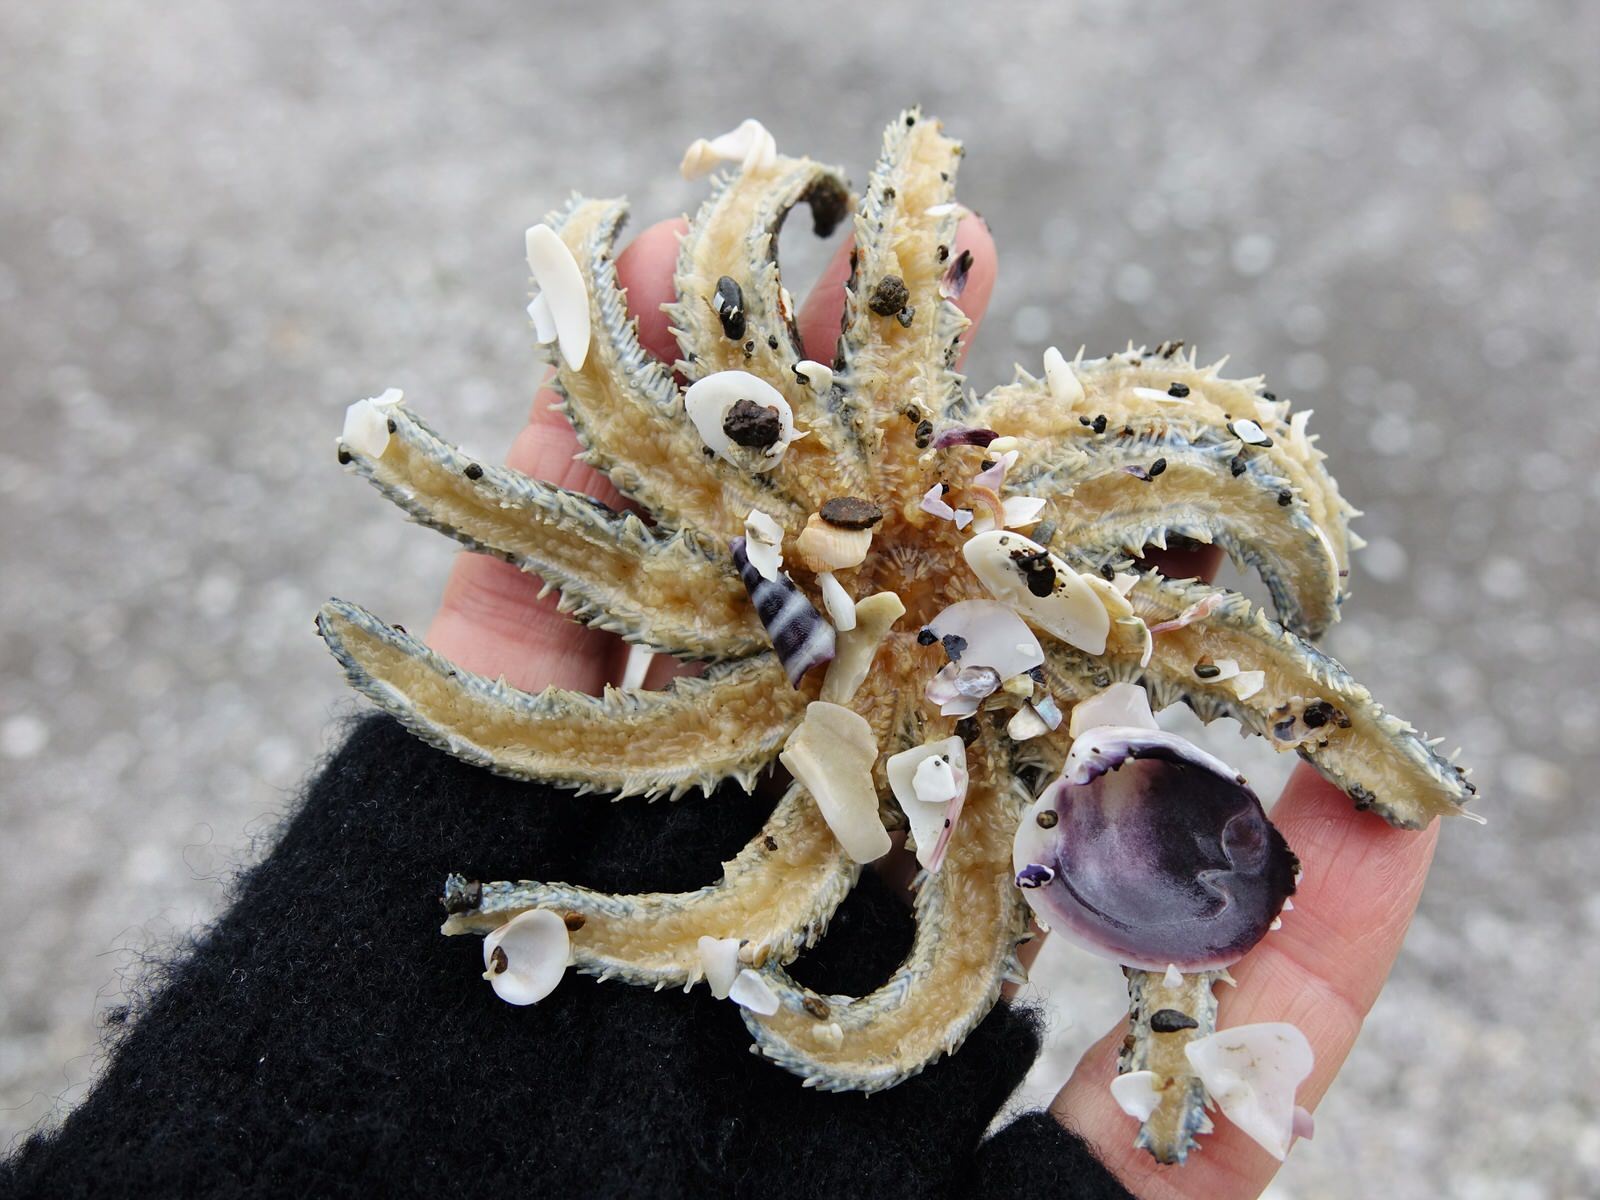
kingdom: Animalia
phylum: Echinodermata
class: Asteroidea
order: Forcipulatida
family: Asteriidae
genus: Coscinasterias
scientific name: Coscinasterias muricata
